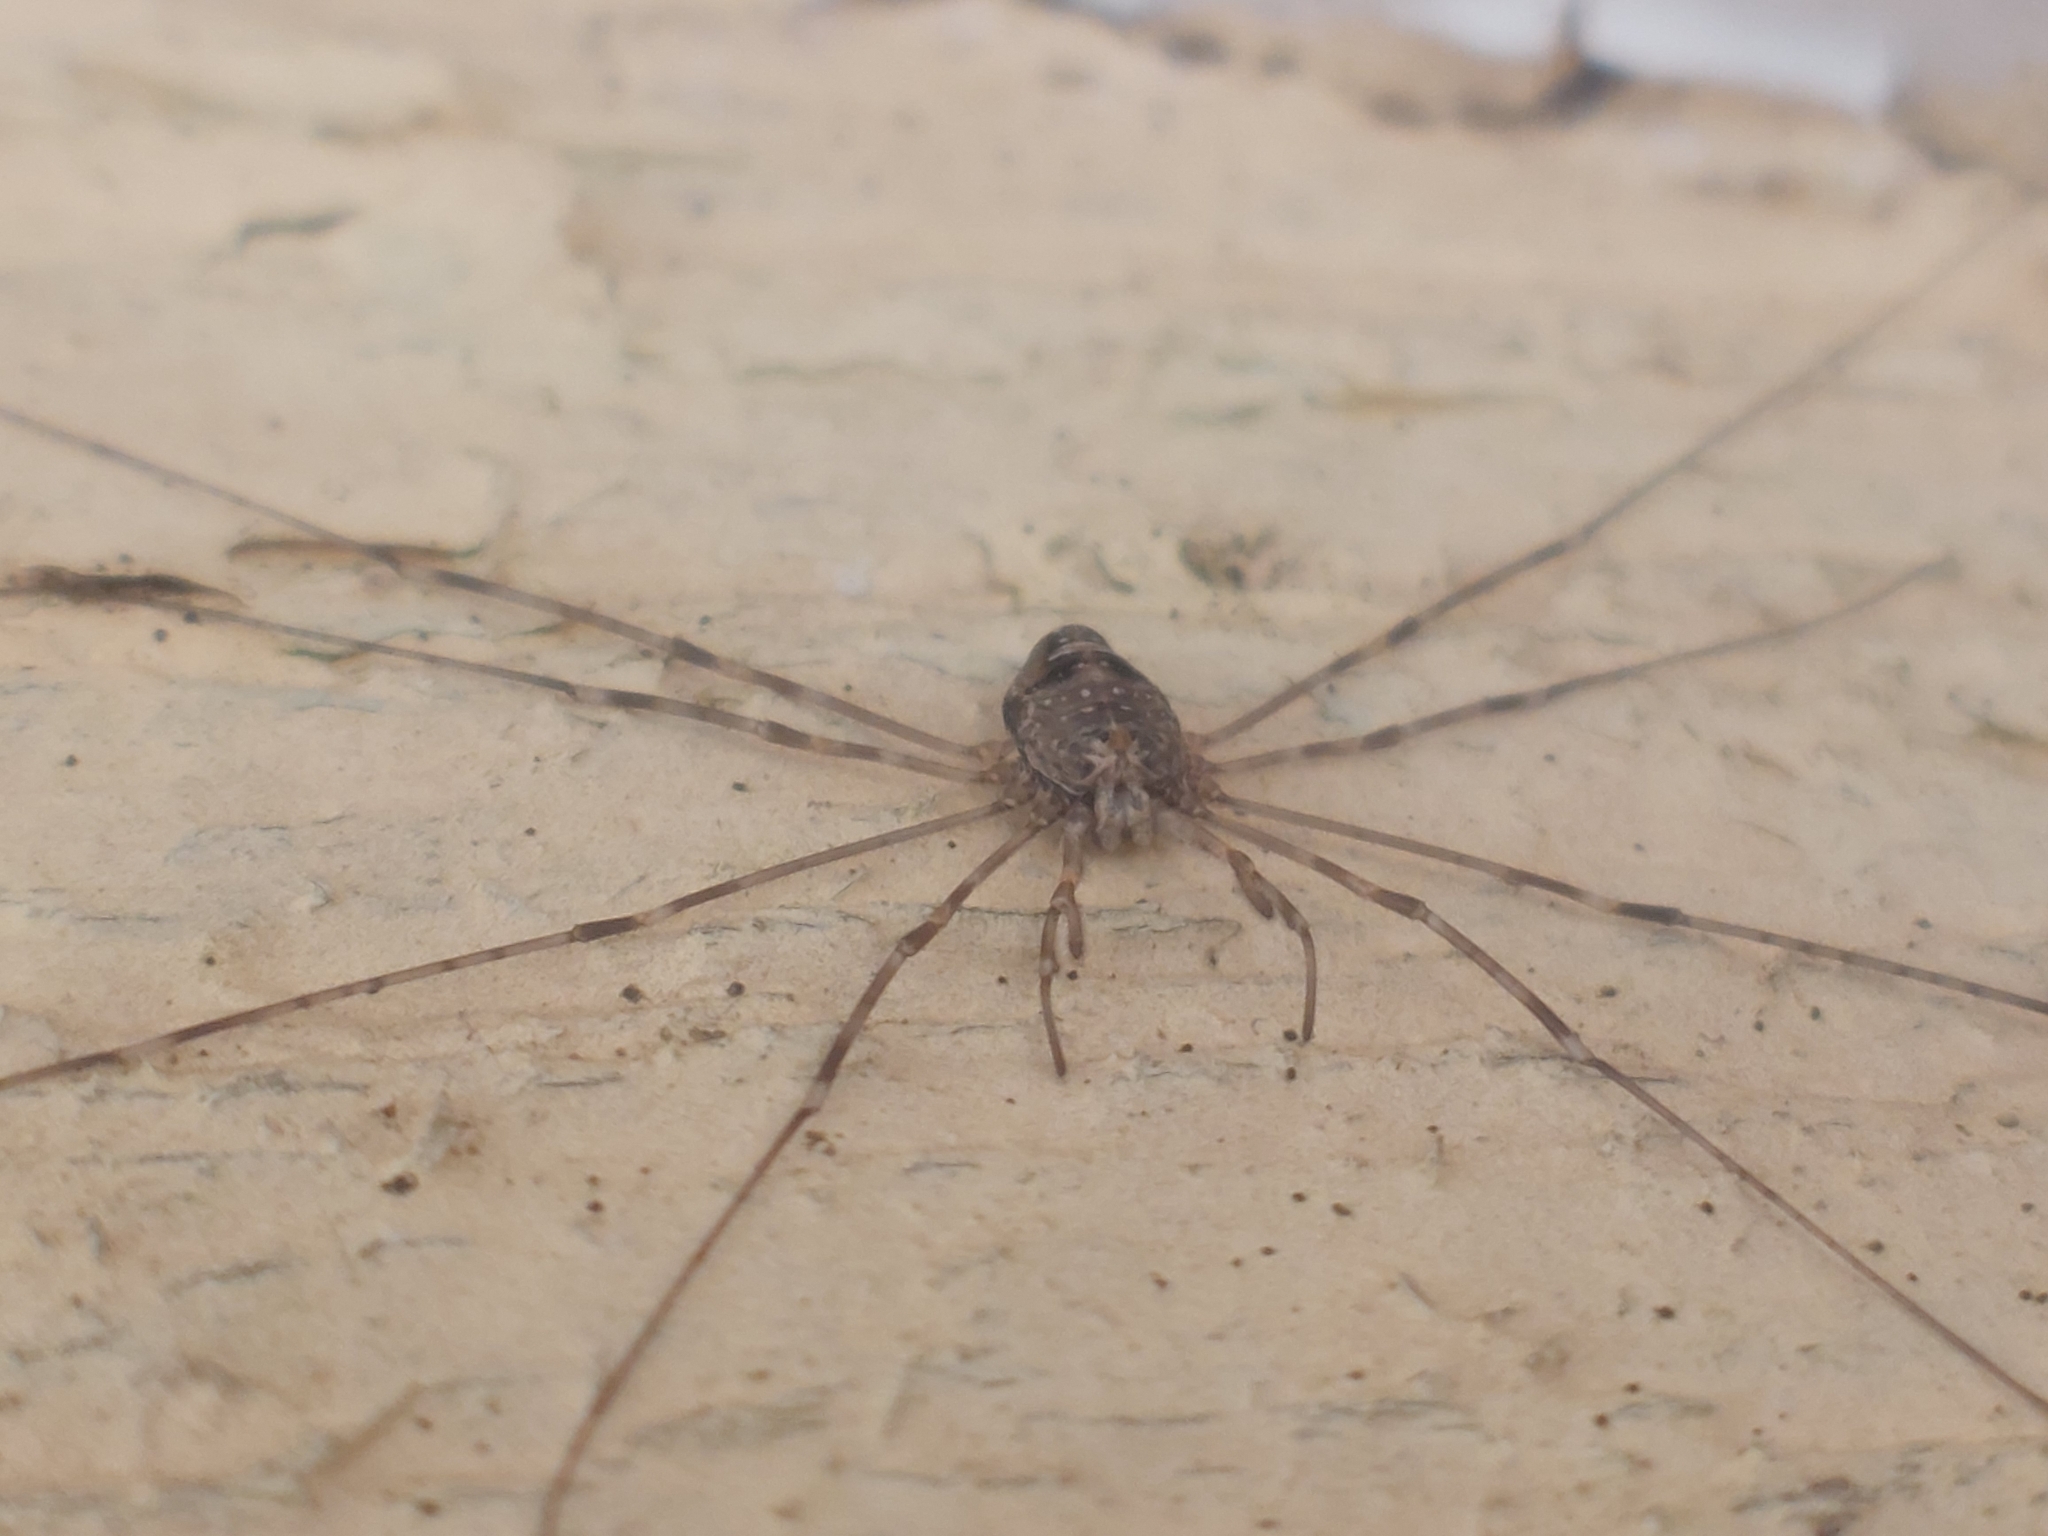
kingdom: Animalia
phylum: Arthropoda
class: Arachnida
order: Opiliones
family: Phalangiidae
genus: Dicranopalpus
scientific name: Dicranopalpus ramosus
